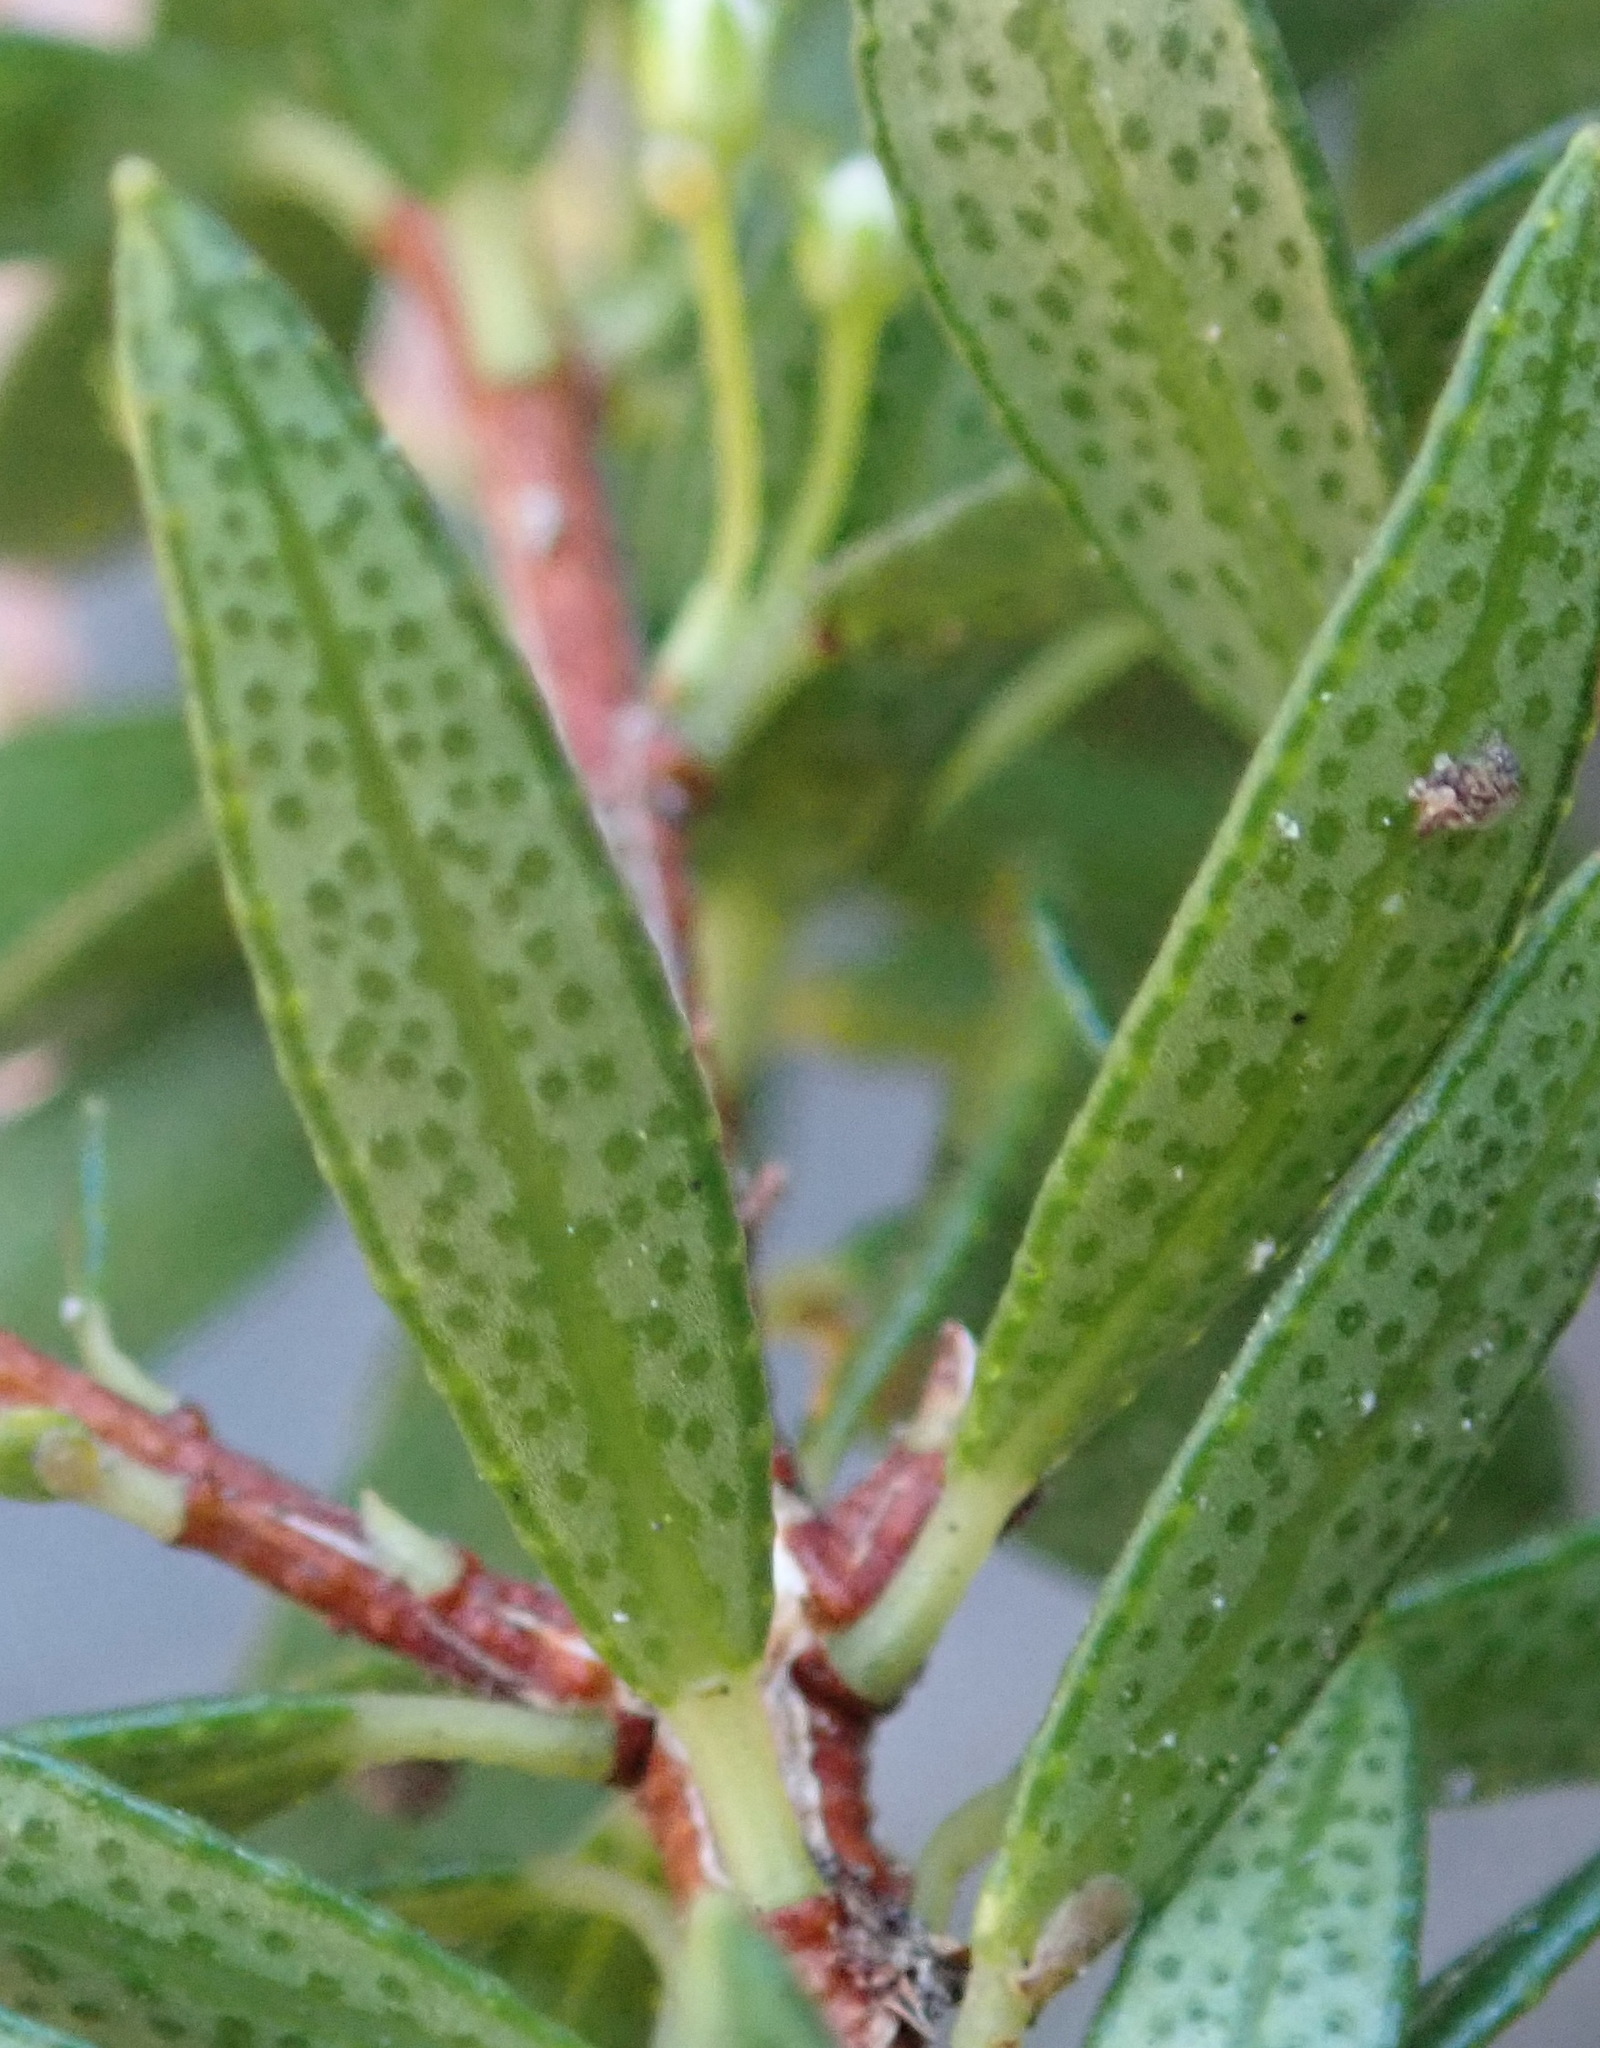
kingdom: Plantae
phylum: Tracheophyta
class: Magnoliopsida
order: Sapindales
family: Rutaceae
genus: Agathosma
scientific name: Agathosma ovata
